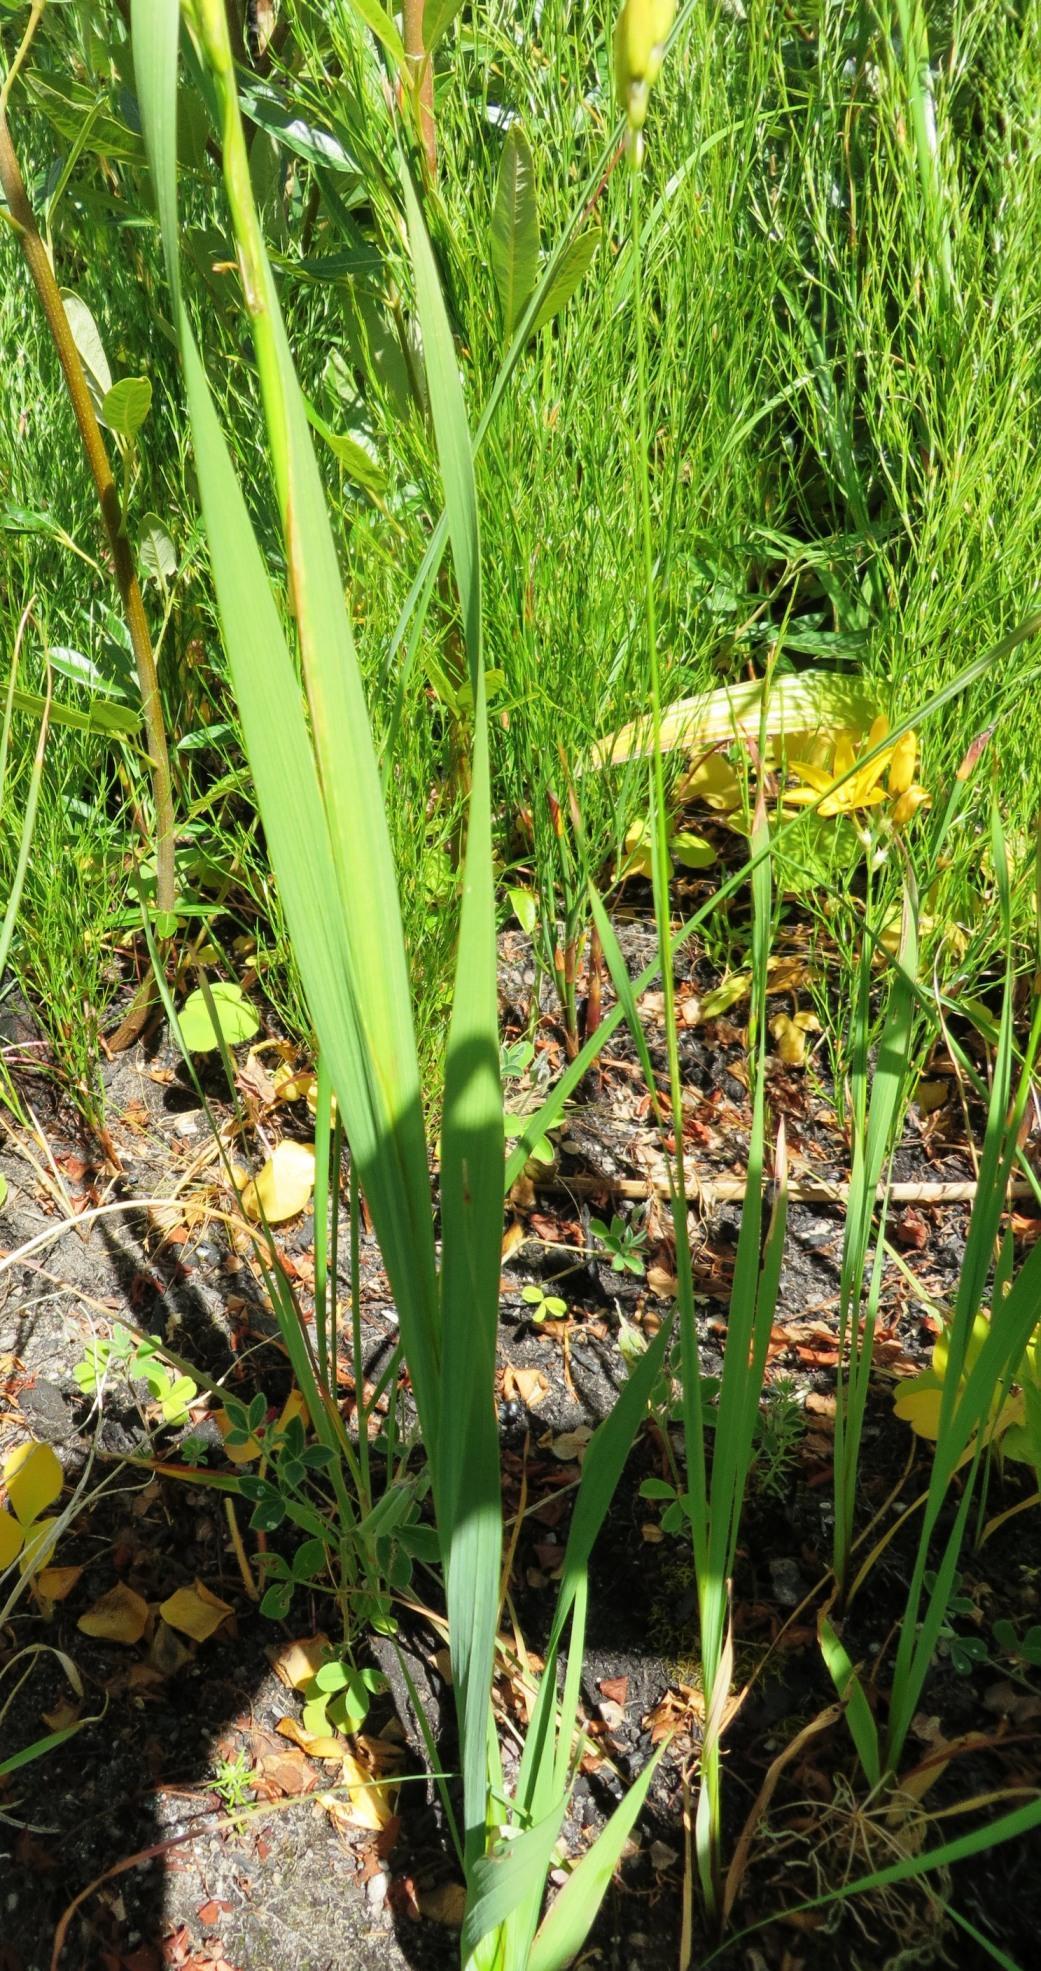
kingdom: Plantae
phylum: Tracheophyta
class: Liliopsida
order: Asparagales
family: Iridaceae
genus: Ixia
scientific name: Ixia odorata
